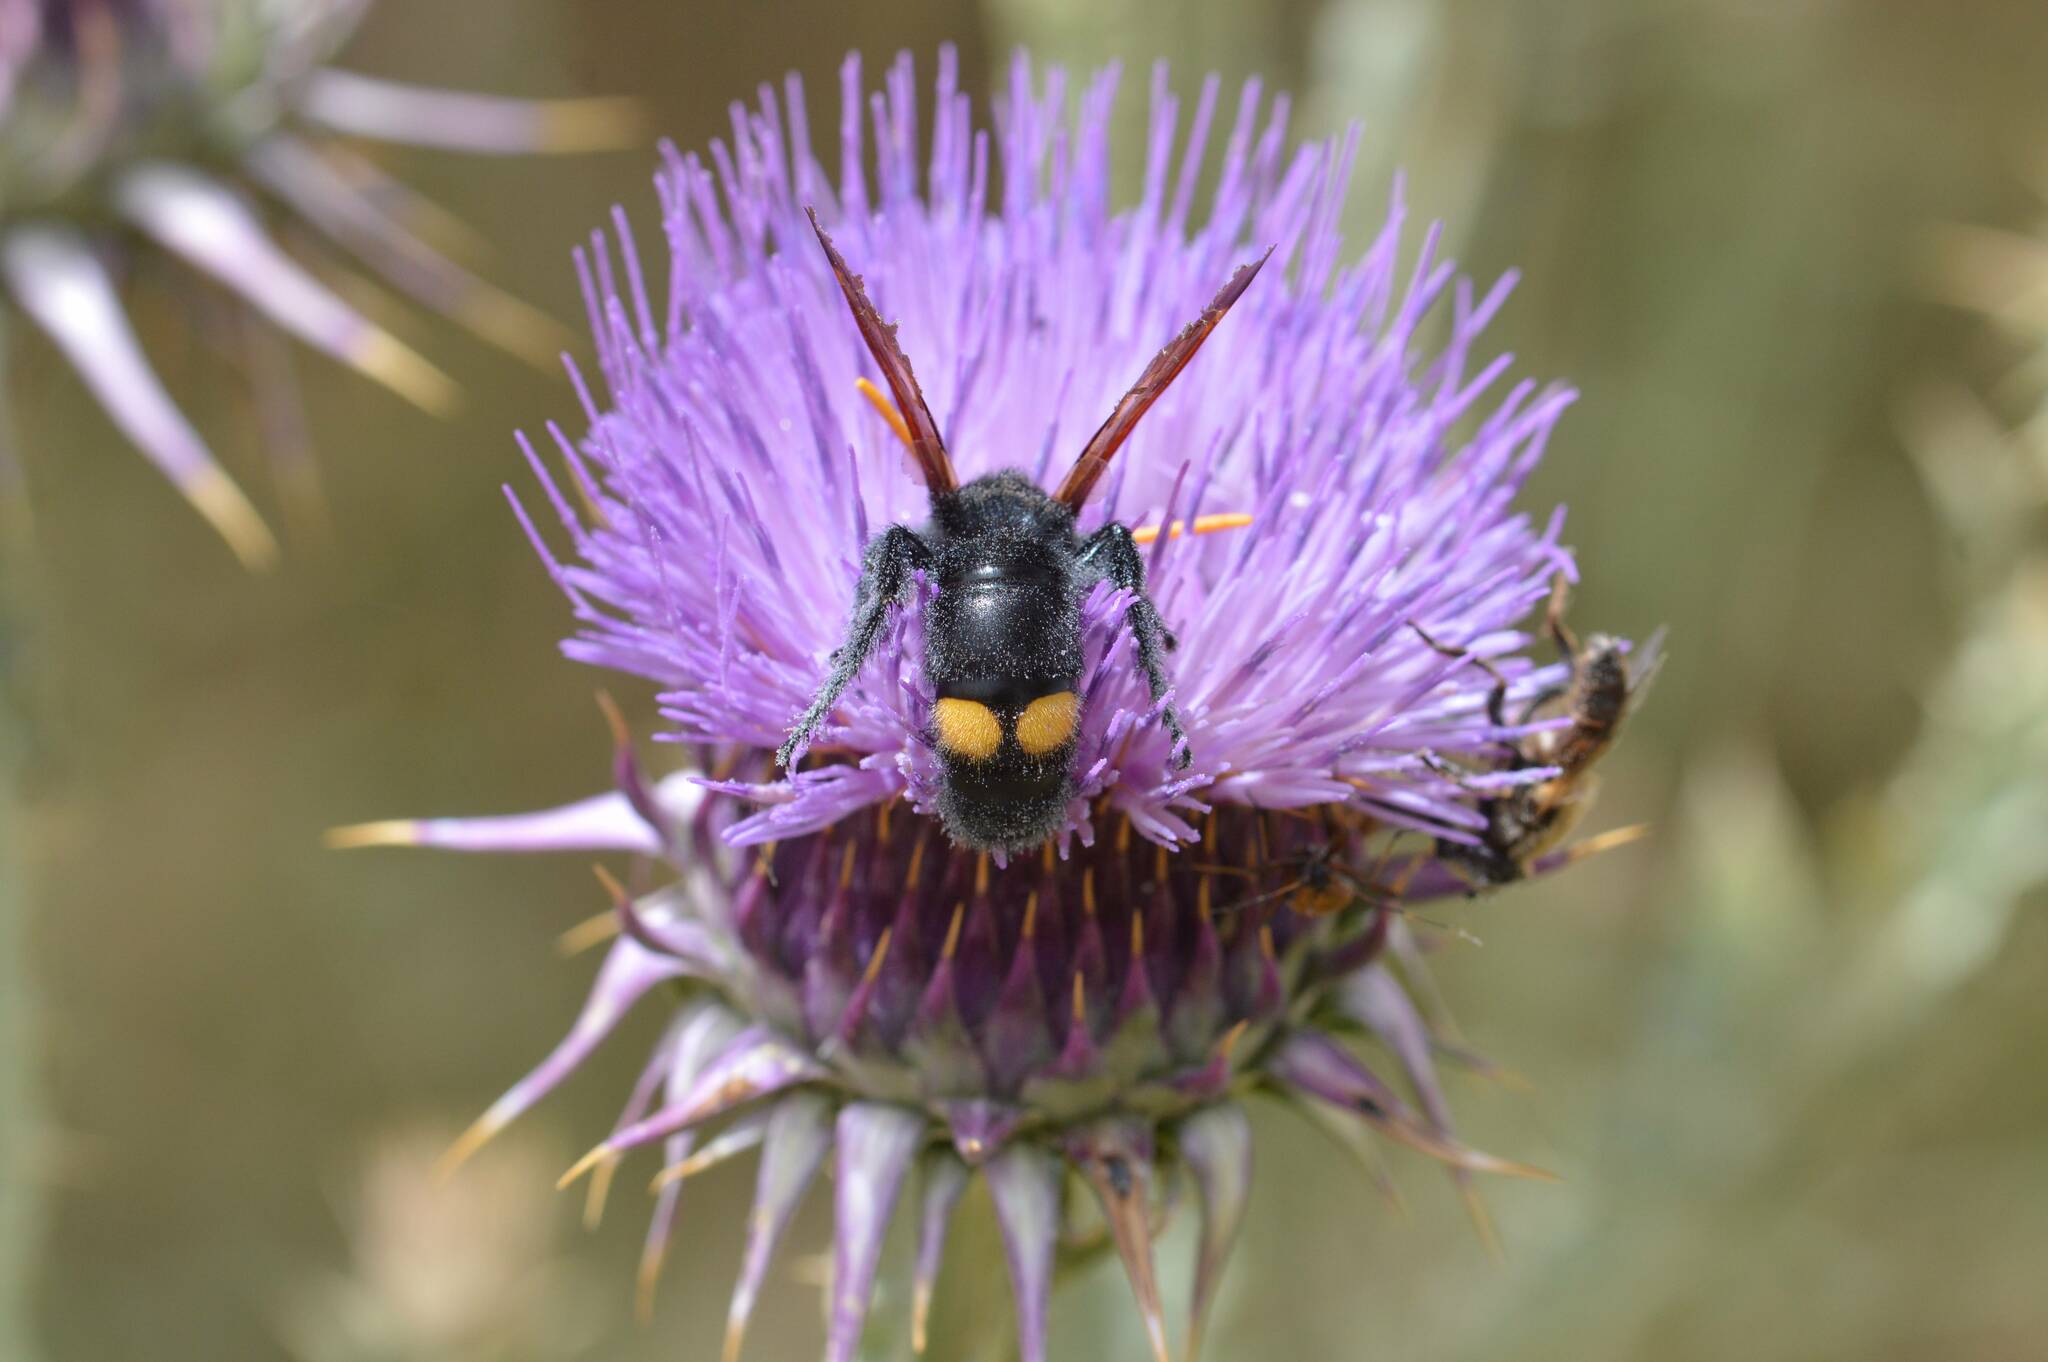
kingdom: Animalia
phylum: Arthropoda
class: Insecta
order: Hymenoptera
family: Scoliidae
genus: Megascolia
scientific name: Megascolia bidens
